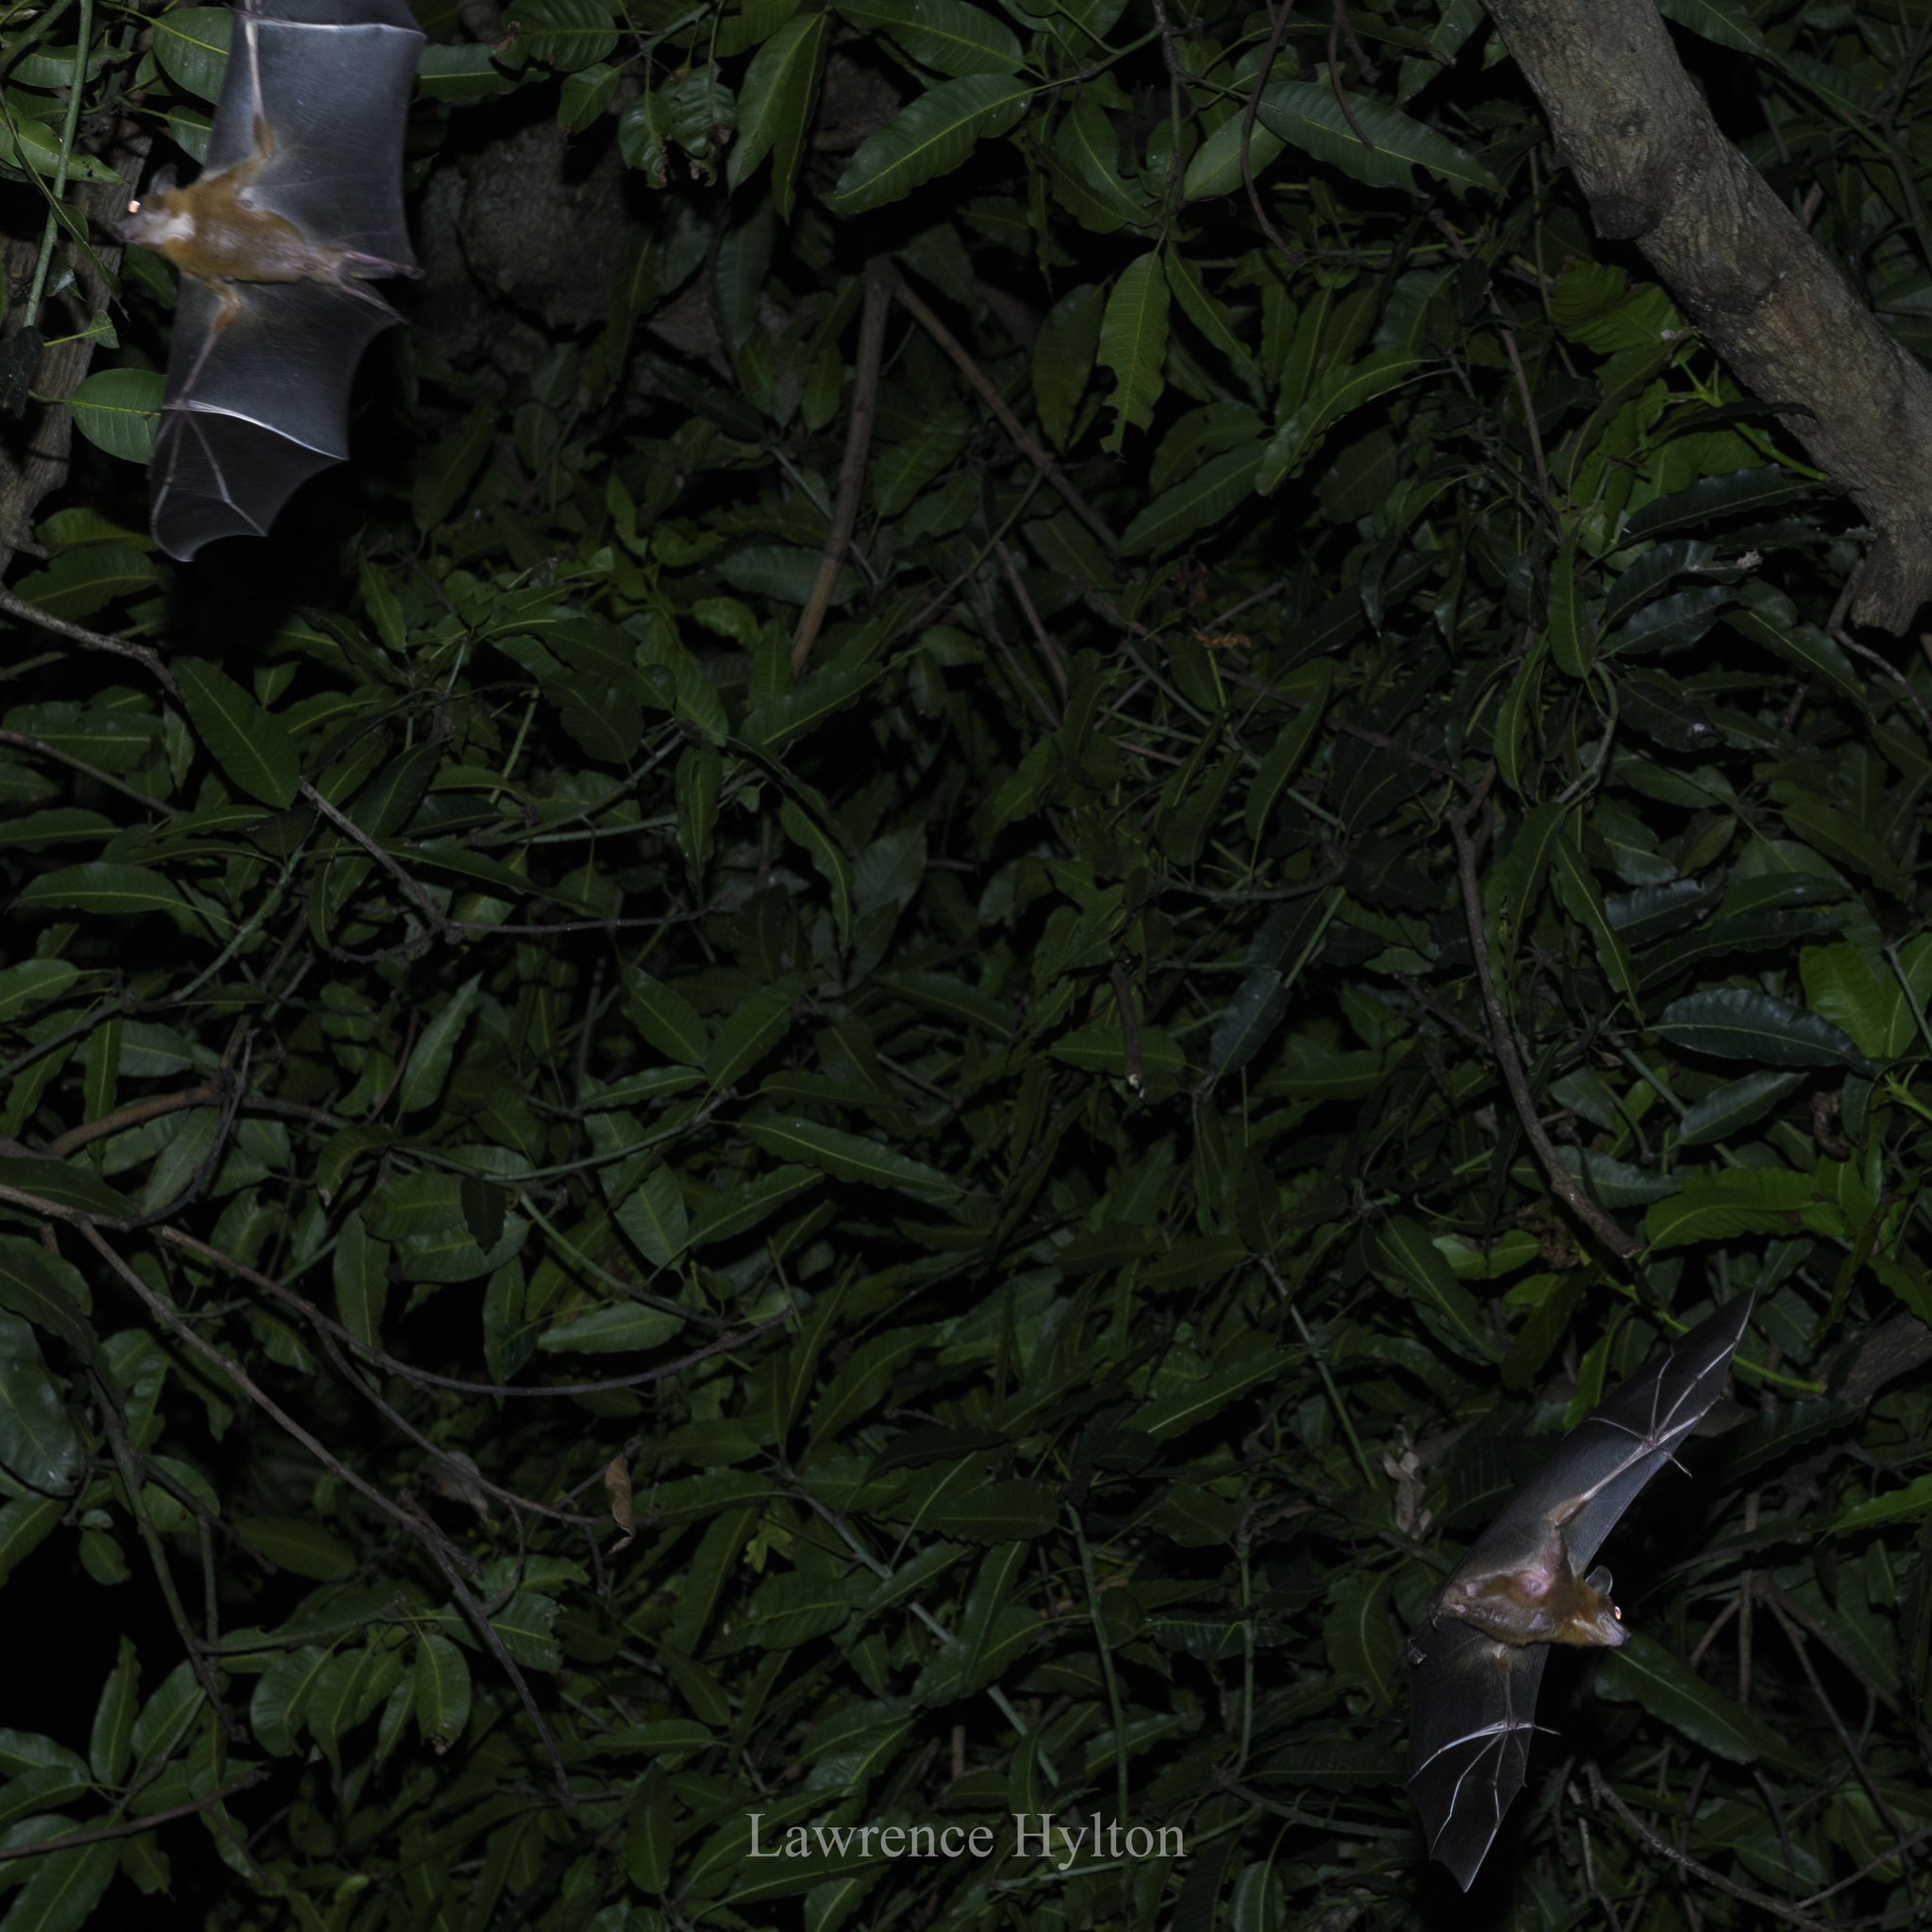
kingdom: Animalia
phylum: Chordata
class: Mammalia
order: Chiroptera
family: Pteropodidae
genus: Cynopterus
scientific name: Cynopterus sphinx
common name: Greater short-nosed fruit bat
